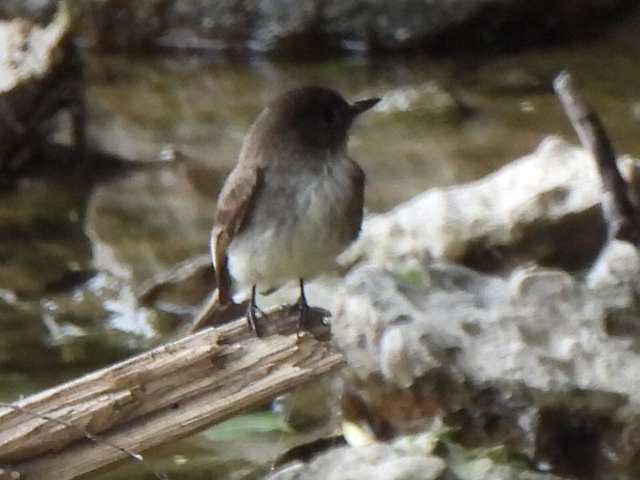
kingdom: Animalia
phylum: Chordata
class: Aves
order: Passeriformes
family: Tyrannidae
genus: Sayornis
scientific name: Sayornis phoebe
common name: Eastern phoebe
